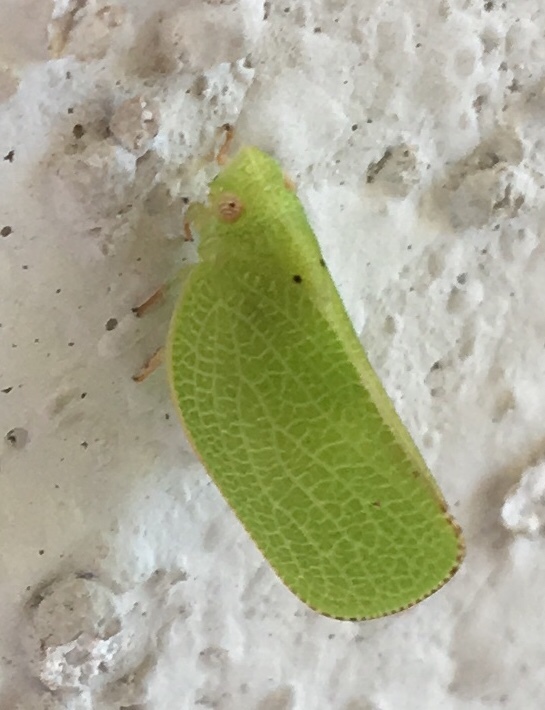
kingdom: Animalia
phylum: Arthropoda
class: Insecta
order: Hemiptera
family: Acanaloniidae
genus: Acanalonia
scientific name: Acanalonia conica
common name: Green cone-headed planthopper
